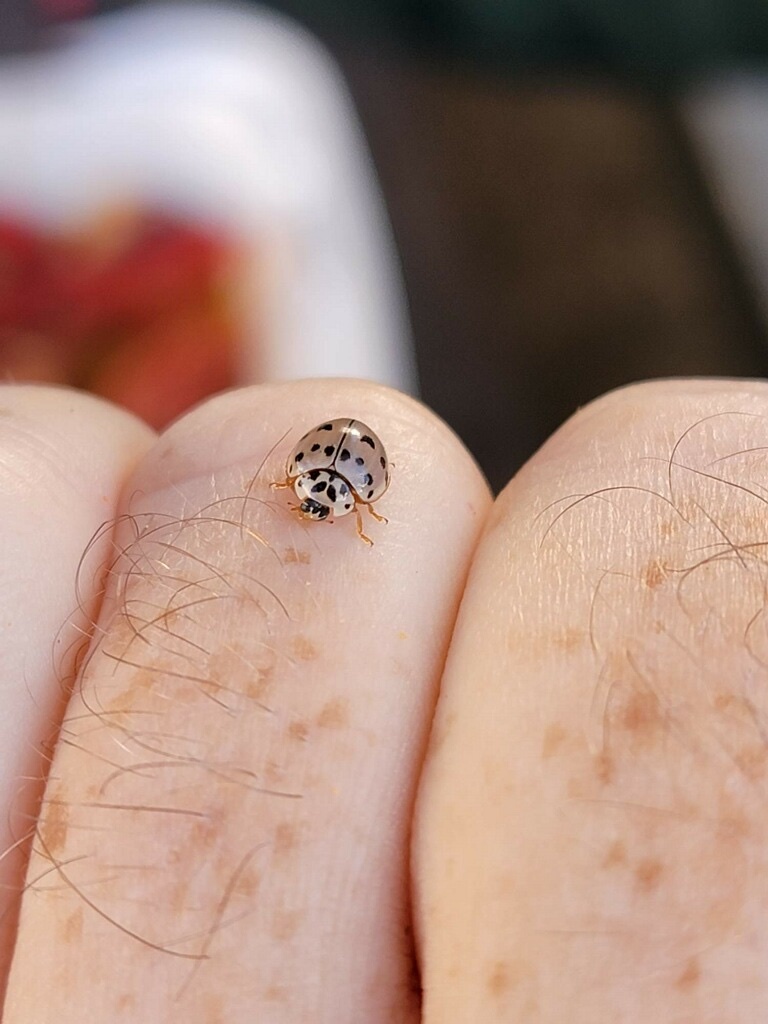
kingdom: Animalia
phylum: Arthropoda
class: Insecta
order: Coleoptera
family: Coccinellidae
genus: Olla
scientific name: Olla v-nigrum
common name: Ashy gray lady beetle
